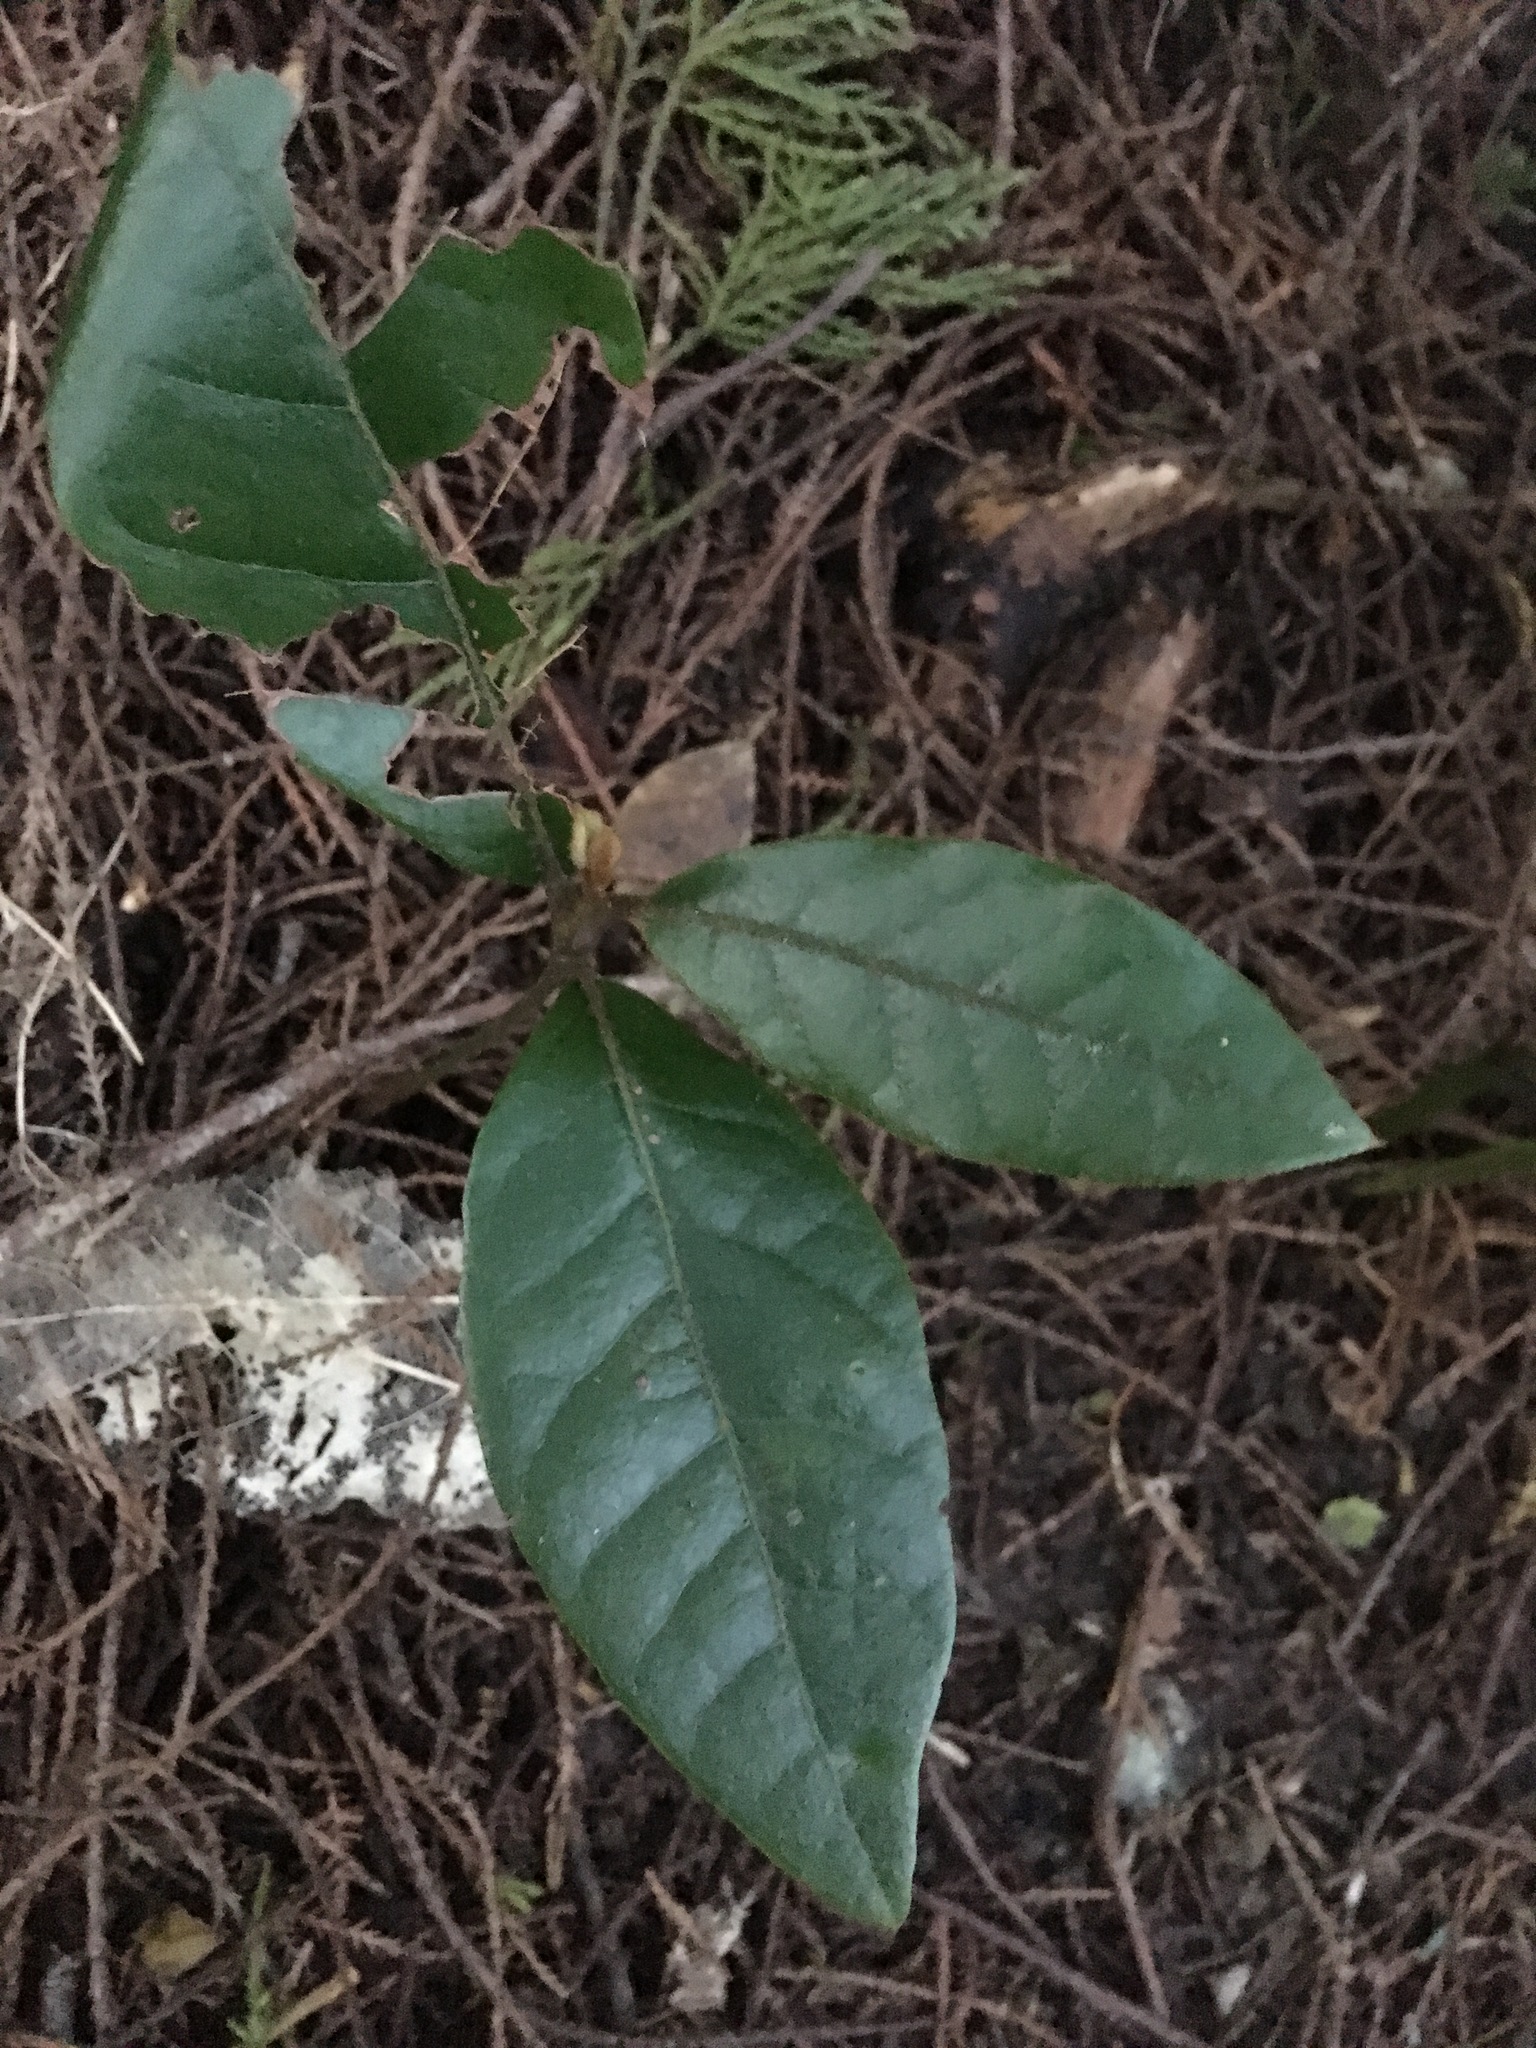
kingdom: Plantae
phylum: Tracheophyta
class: Magnoliopsida
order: Laurales
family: Lauraceae
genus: Beilschmiedia
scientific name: Beilschmiedia tarairi
